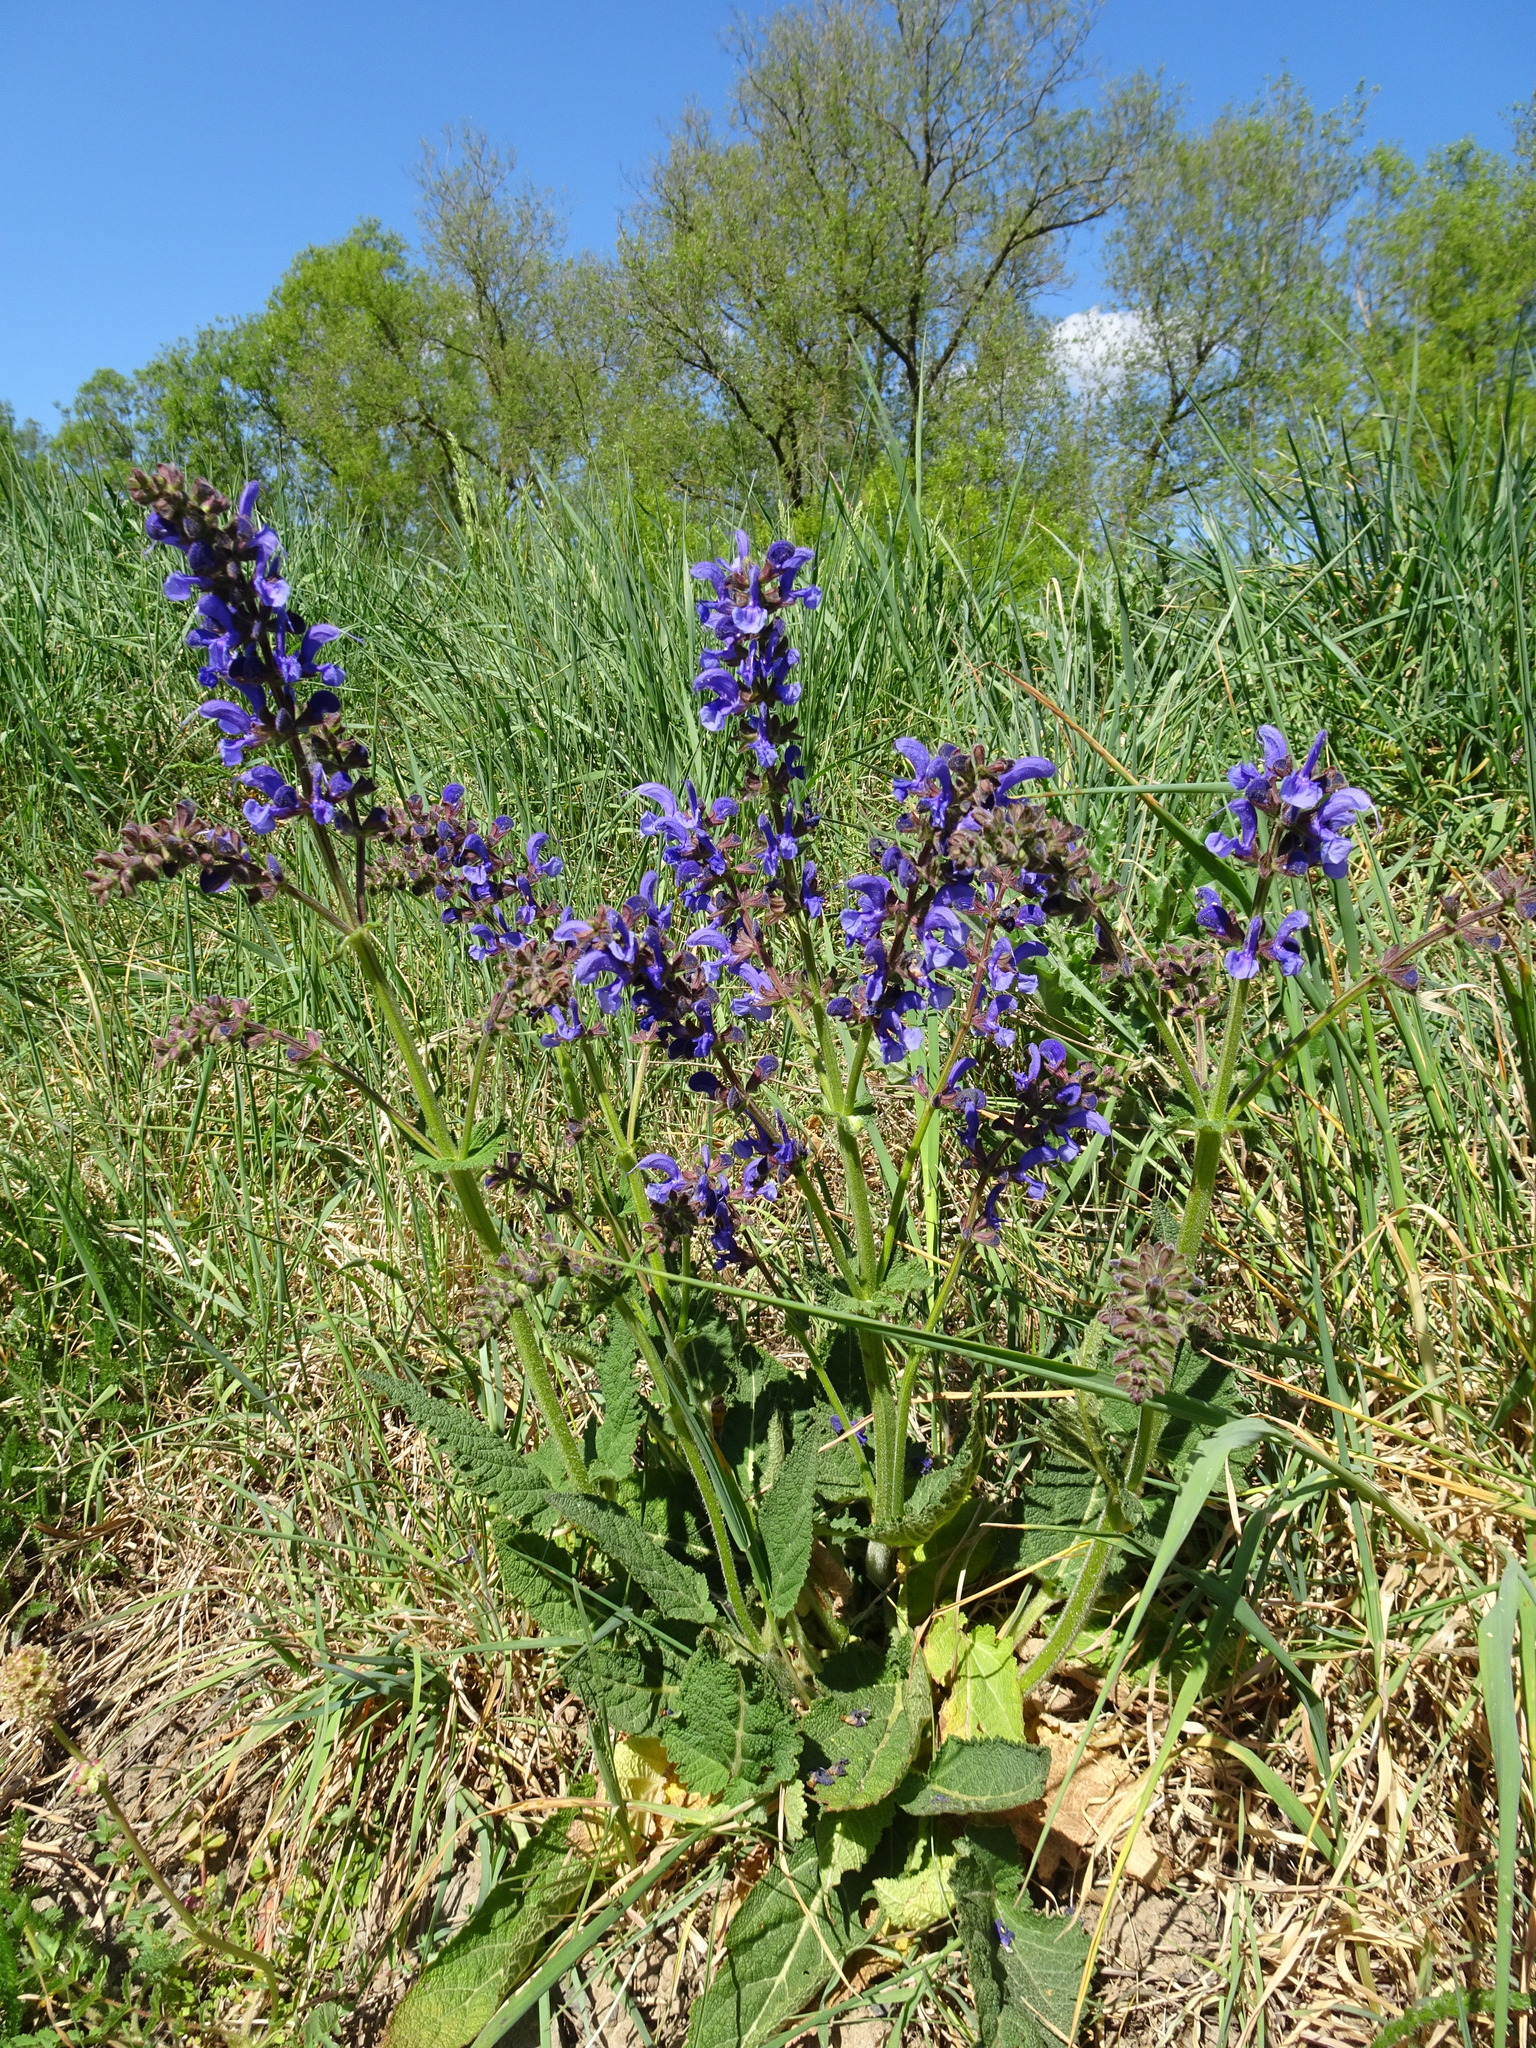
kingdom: Plantae
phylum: Tracheophyta
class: Magnoliopsida
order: Lamiales
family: Lamiaceae
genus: Salvia
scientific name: Salvia pratensis
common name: Meadow sage
